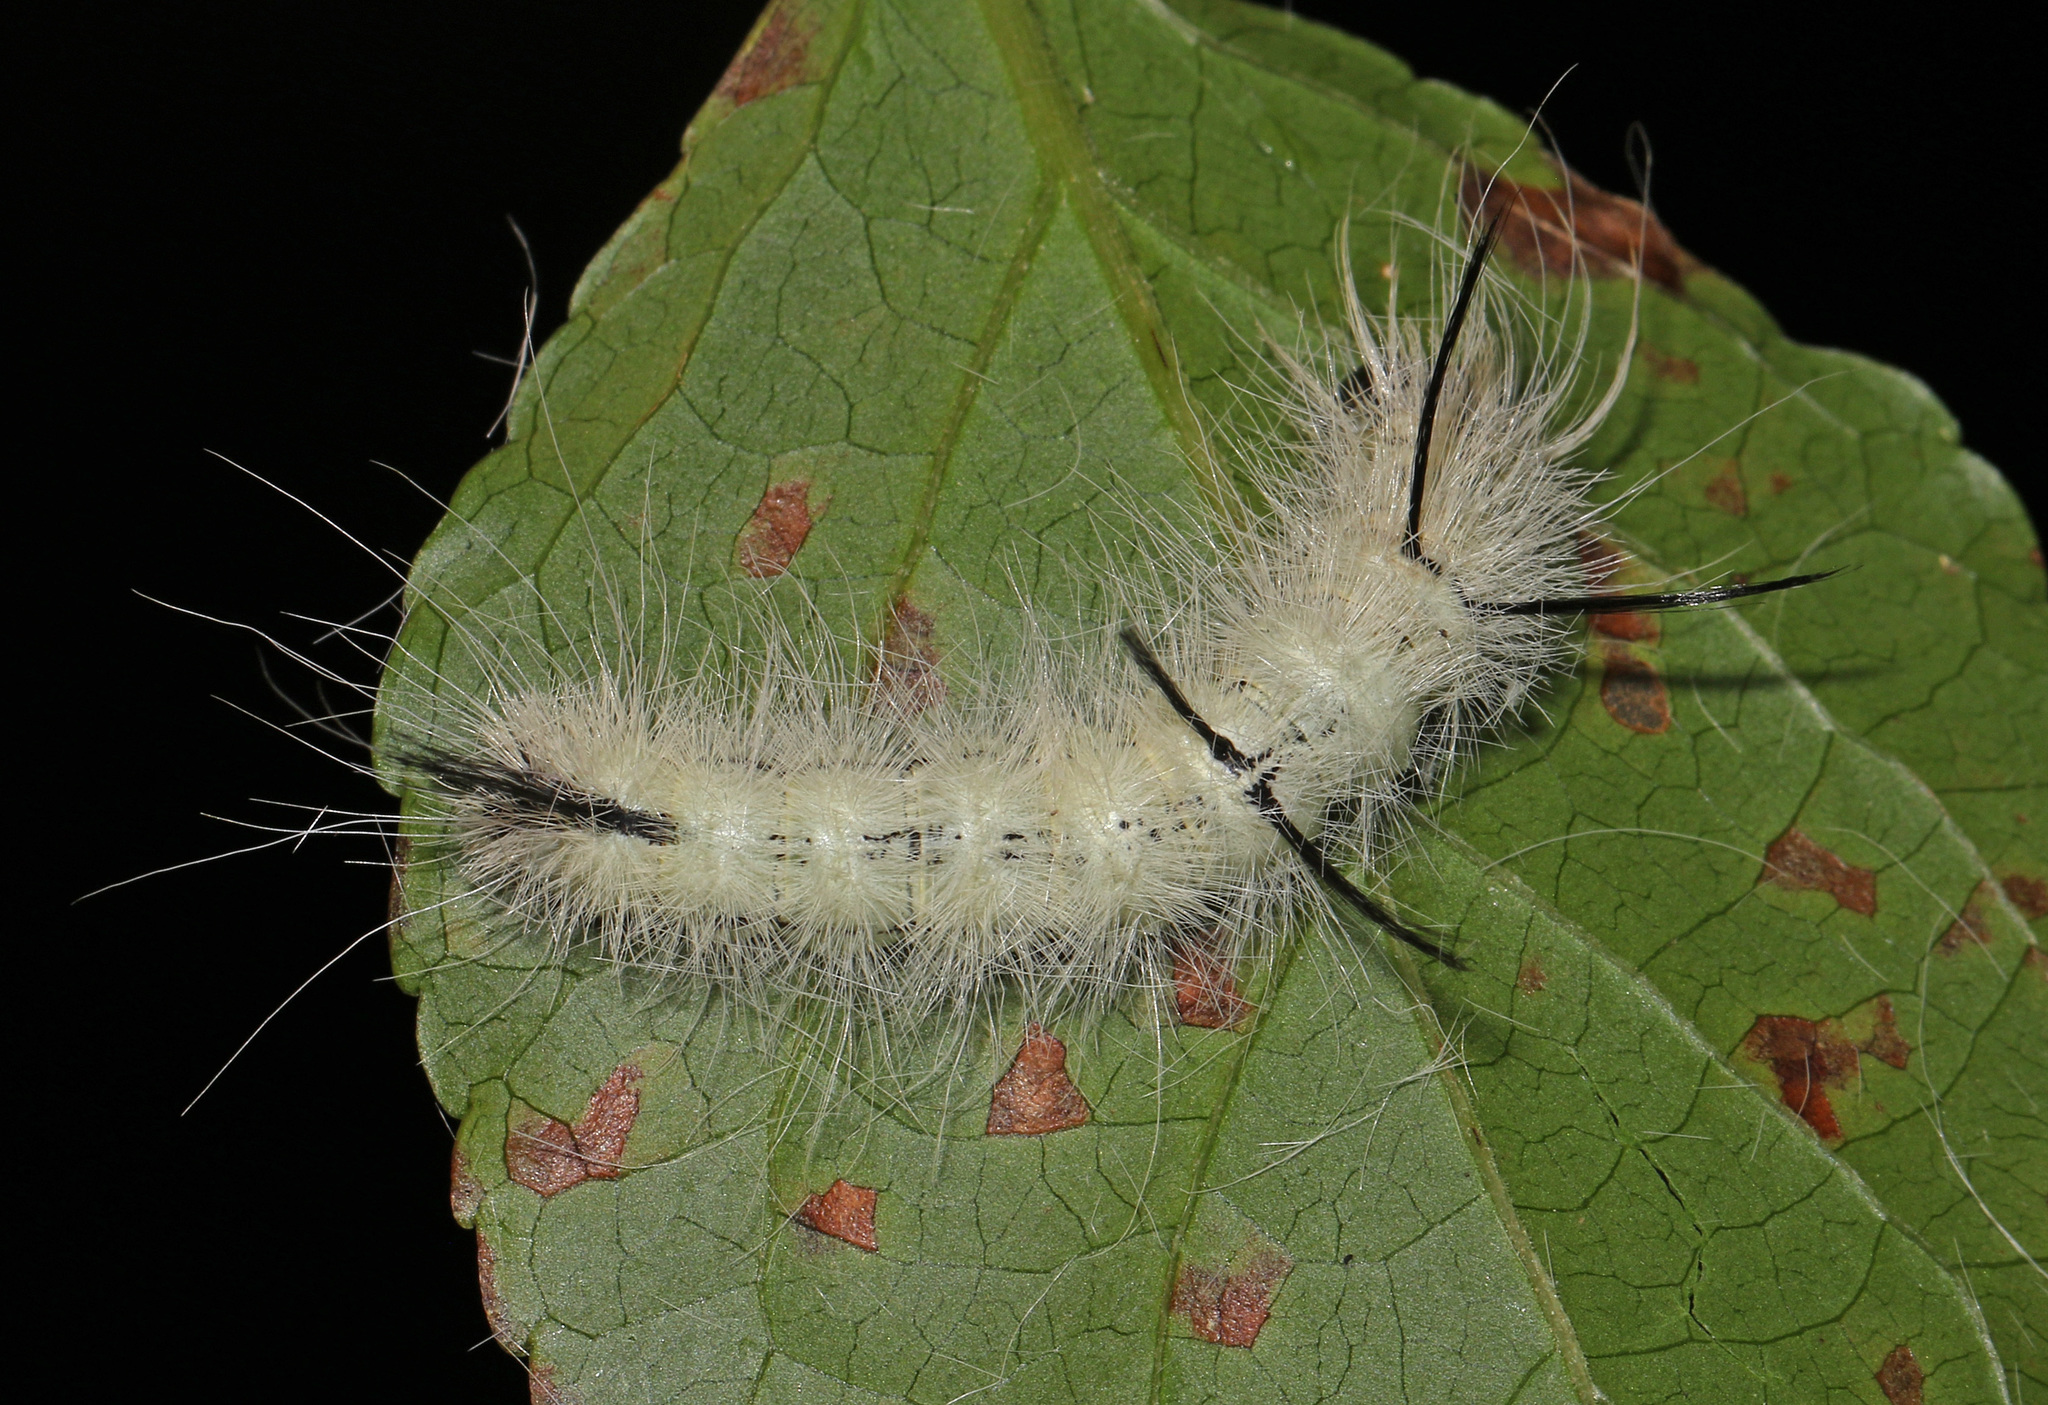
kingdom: Animalia
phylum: Arthropoda
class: Insecta
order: Lepidoptera
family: Noctuidae
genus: Acronicta
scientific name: Acronicta americana
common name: American dagger
